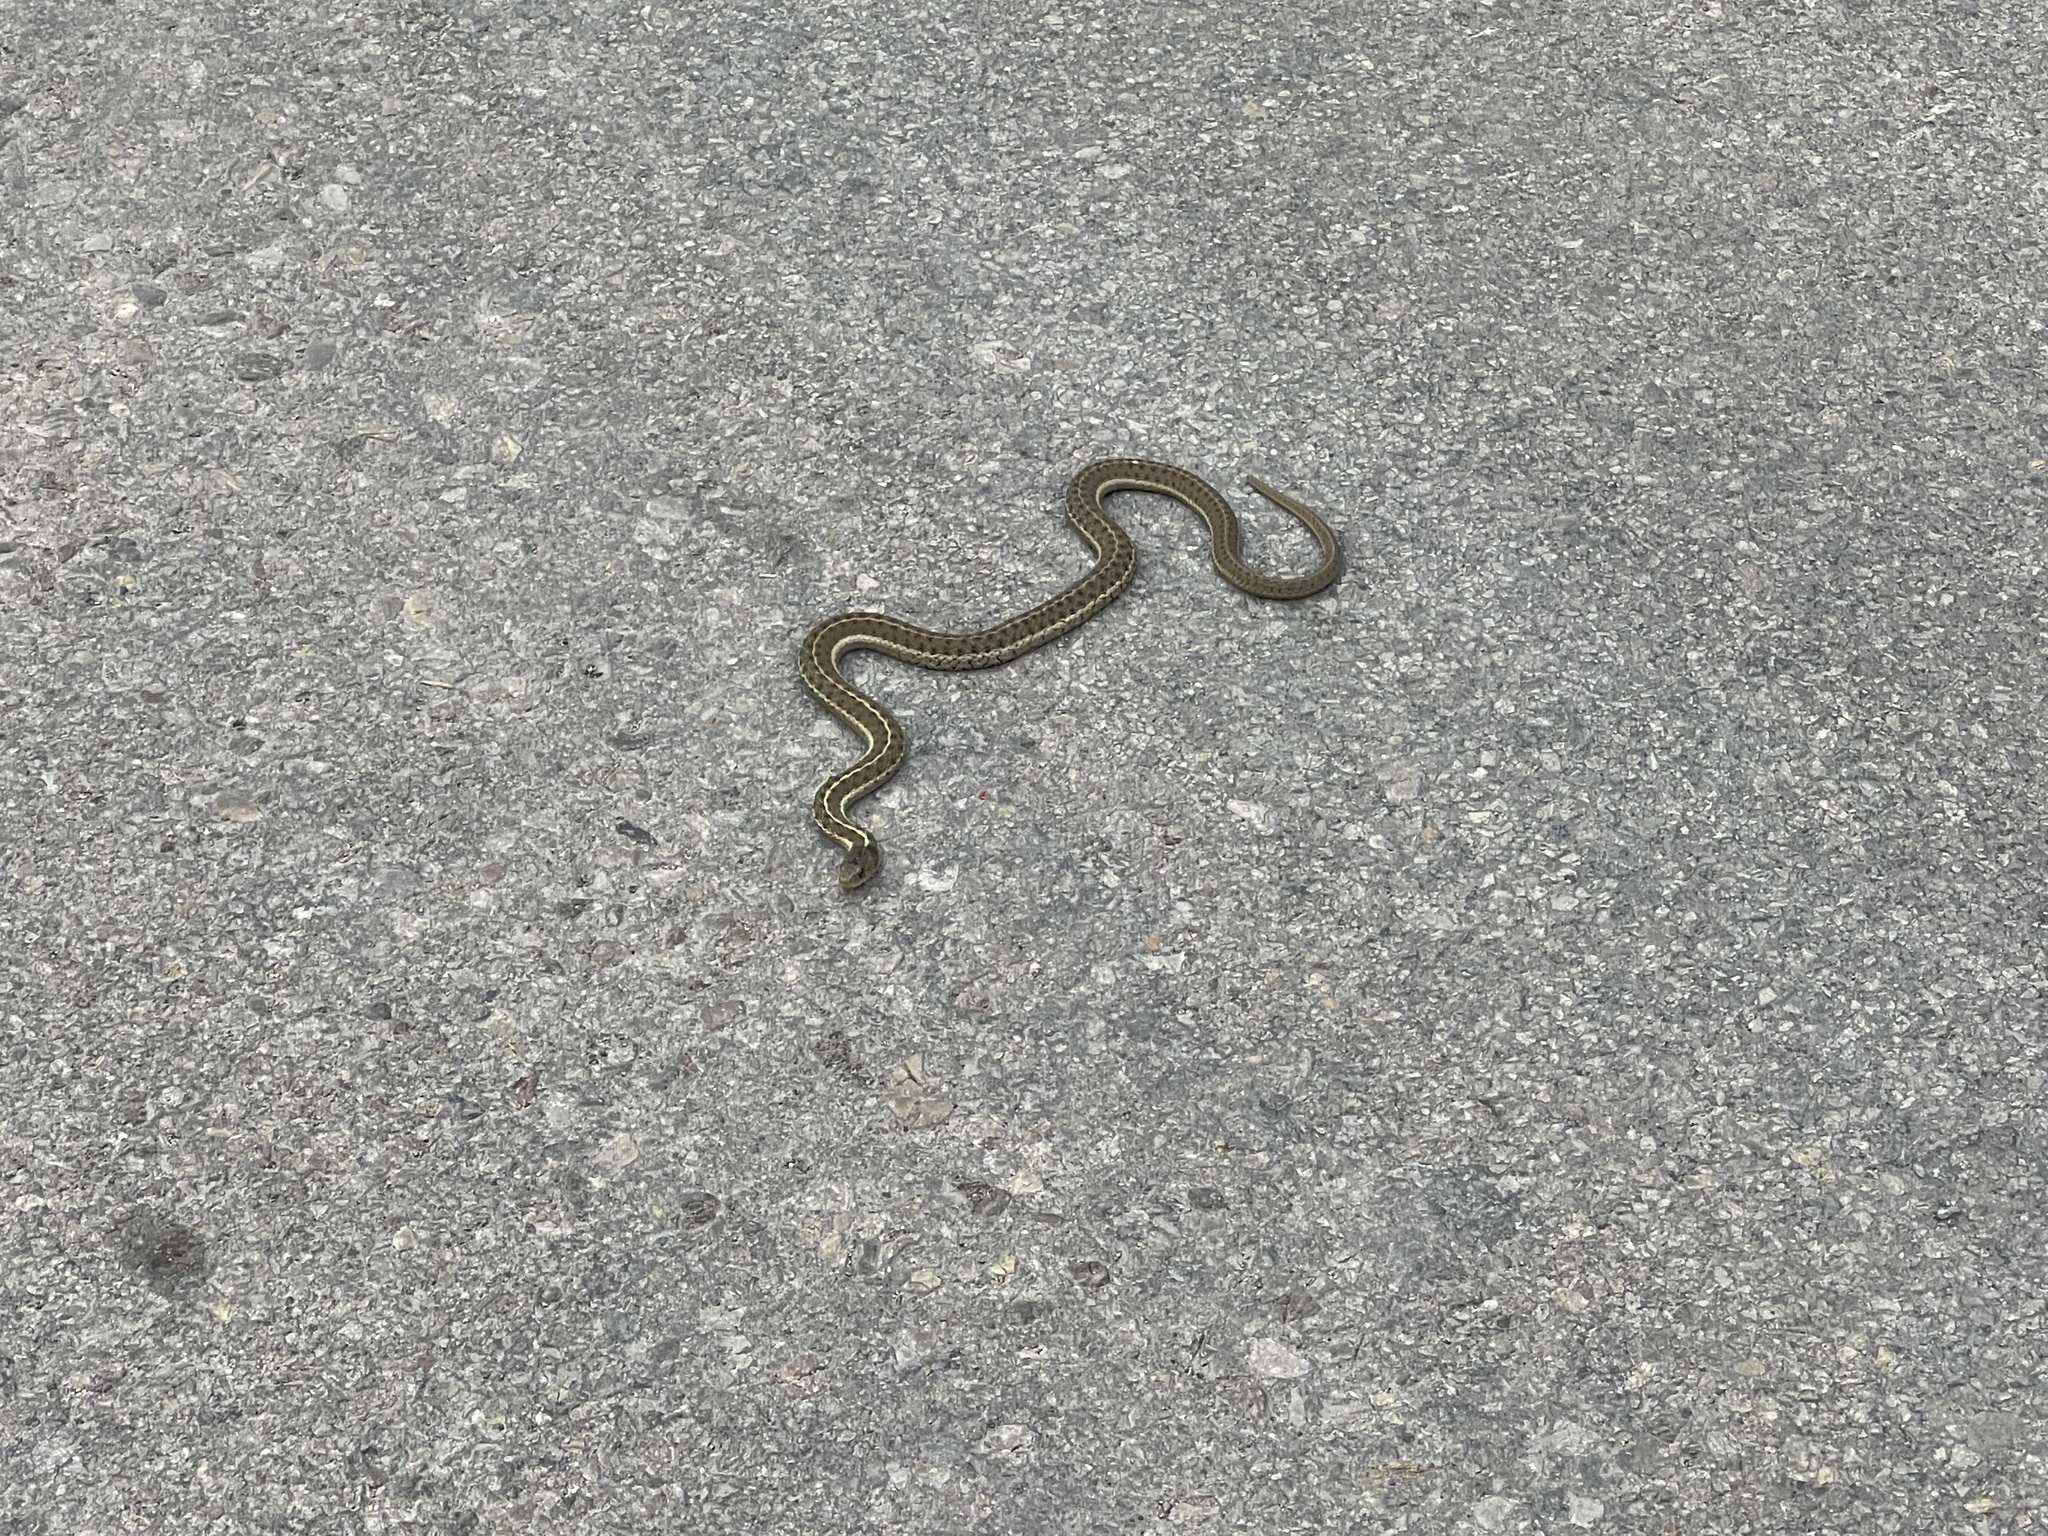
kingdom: Animalia
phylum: Chordata
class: Squamata
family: Colubridae
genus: Thamnophis
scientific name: Thamnophis elegans
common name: Western terrestrial garter snake
